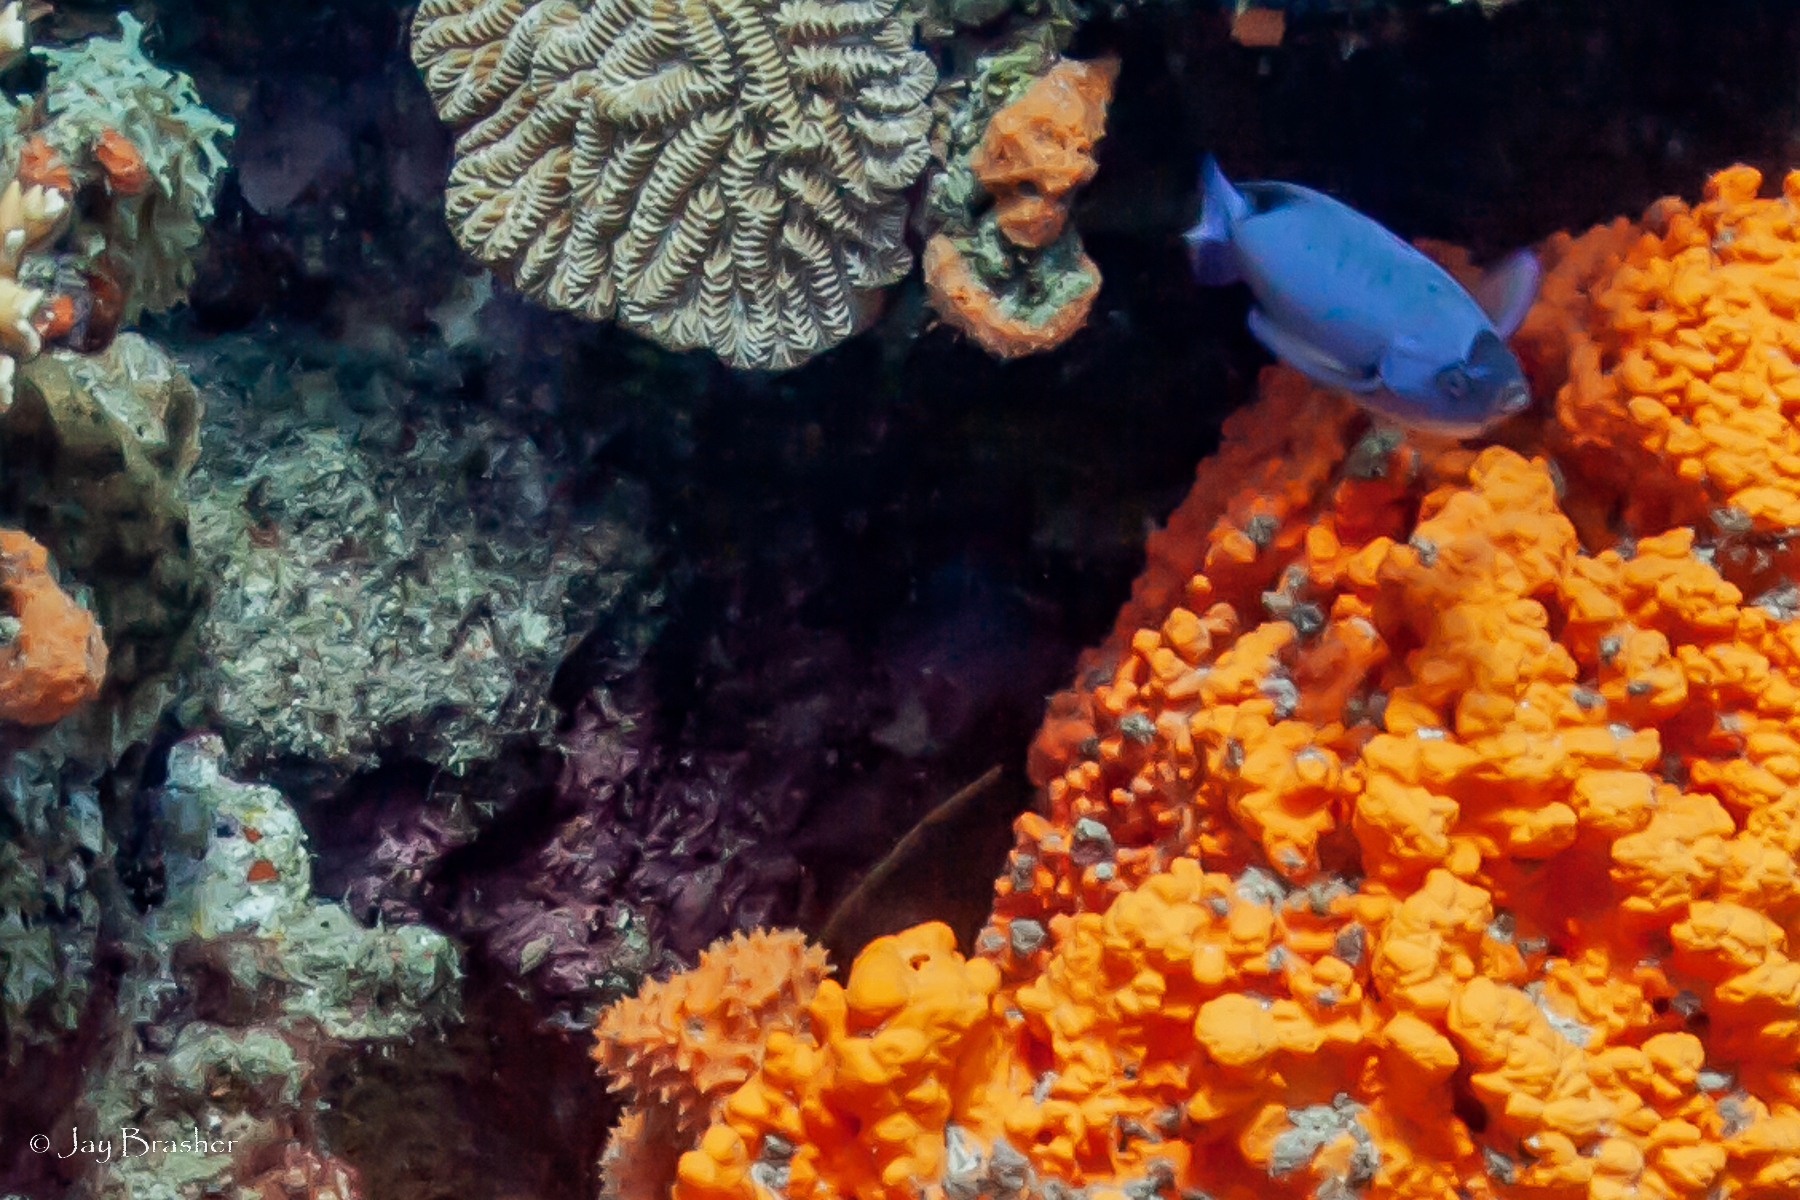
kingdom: Animalia
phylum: Chordata
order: Perciformes
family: Labridae
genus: Bodianus
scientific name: Bodianus
